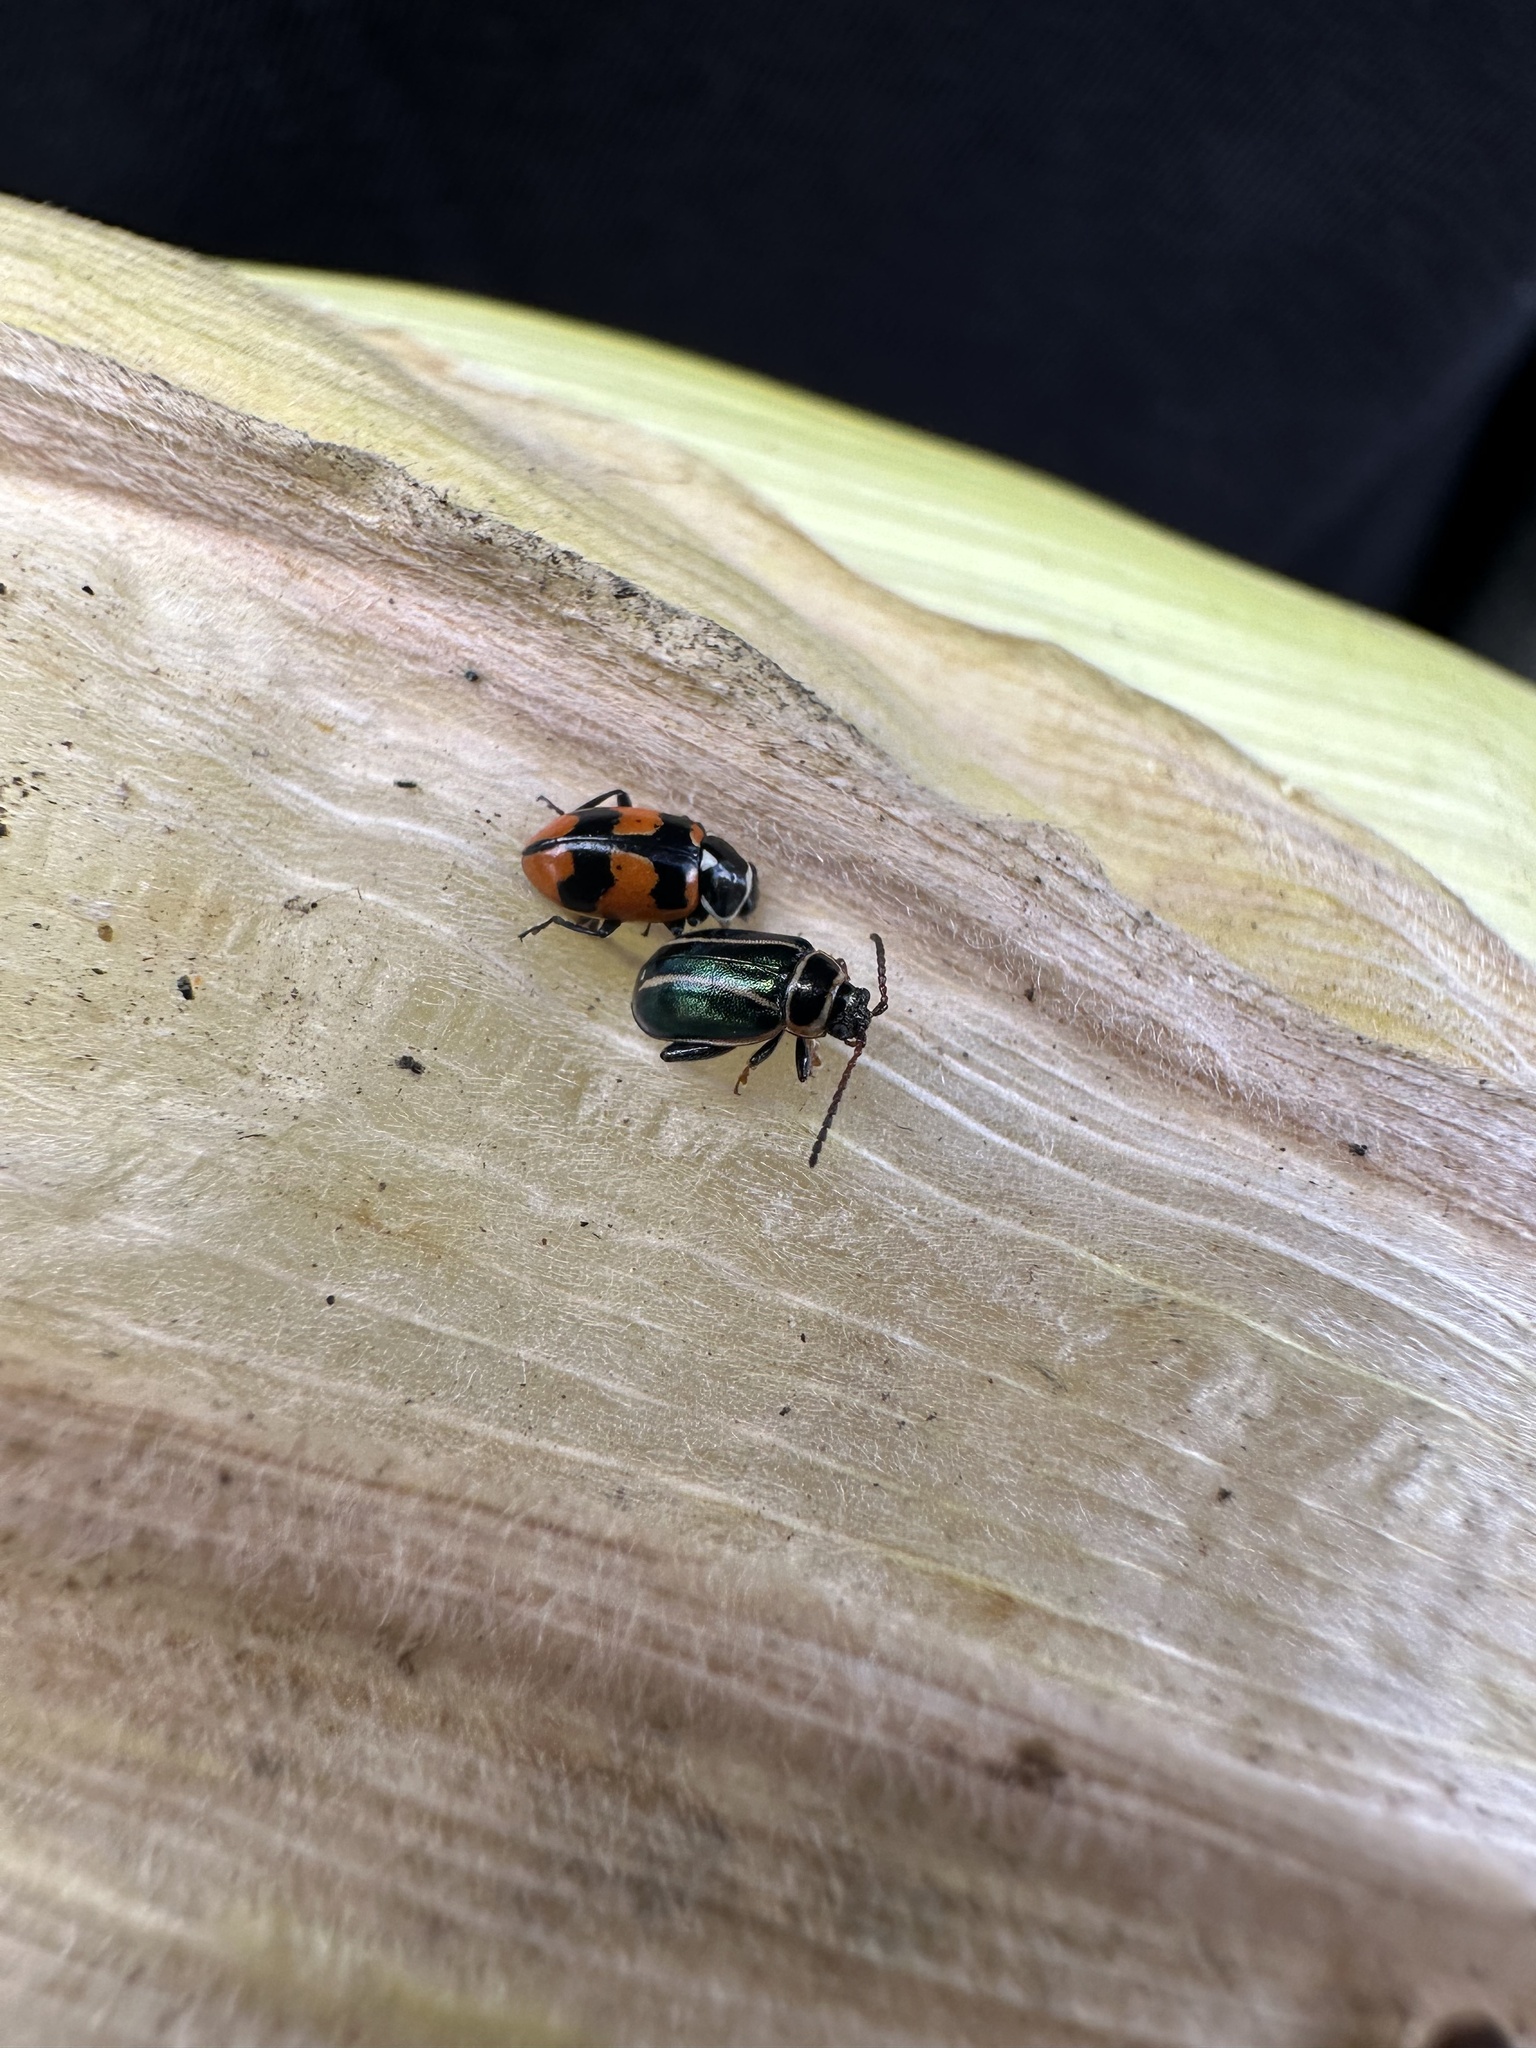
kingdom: Animalia
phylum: Arthropoda
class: Insecta
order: Coleoptera
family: Coccinellidae
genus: Eriopis
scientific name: Eriopis eschscholtzii
